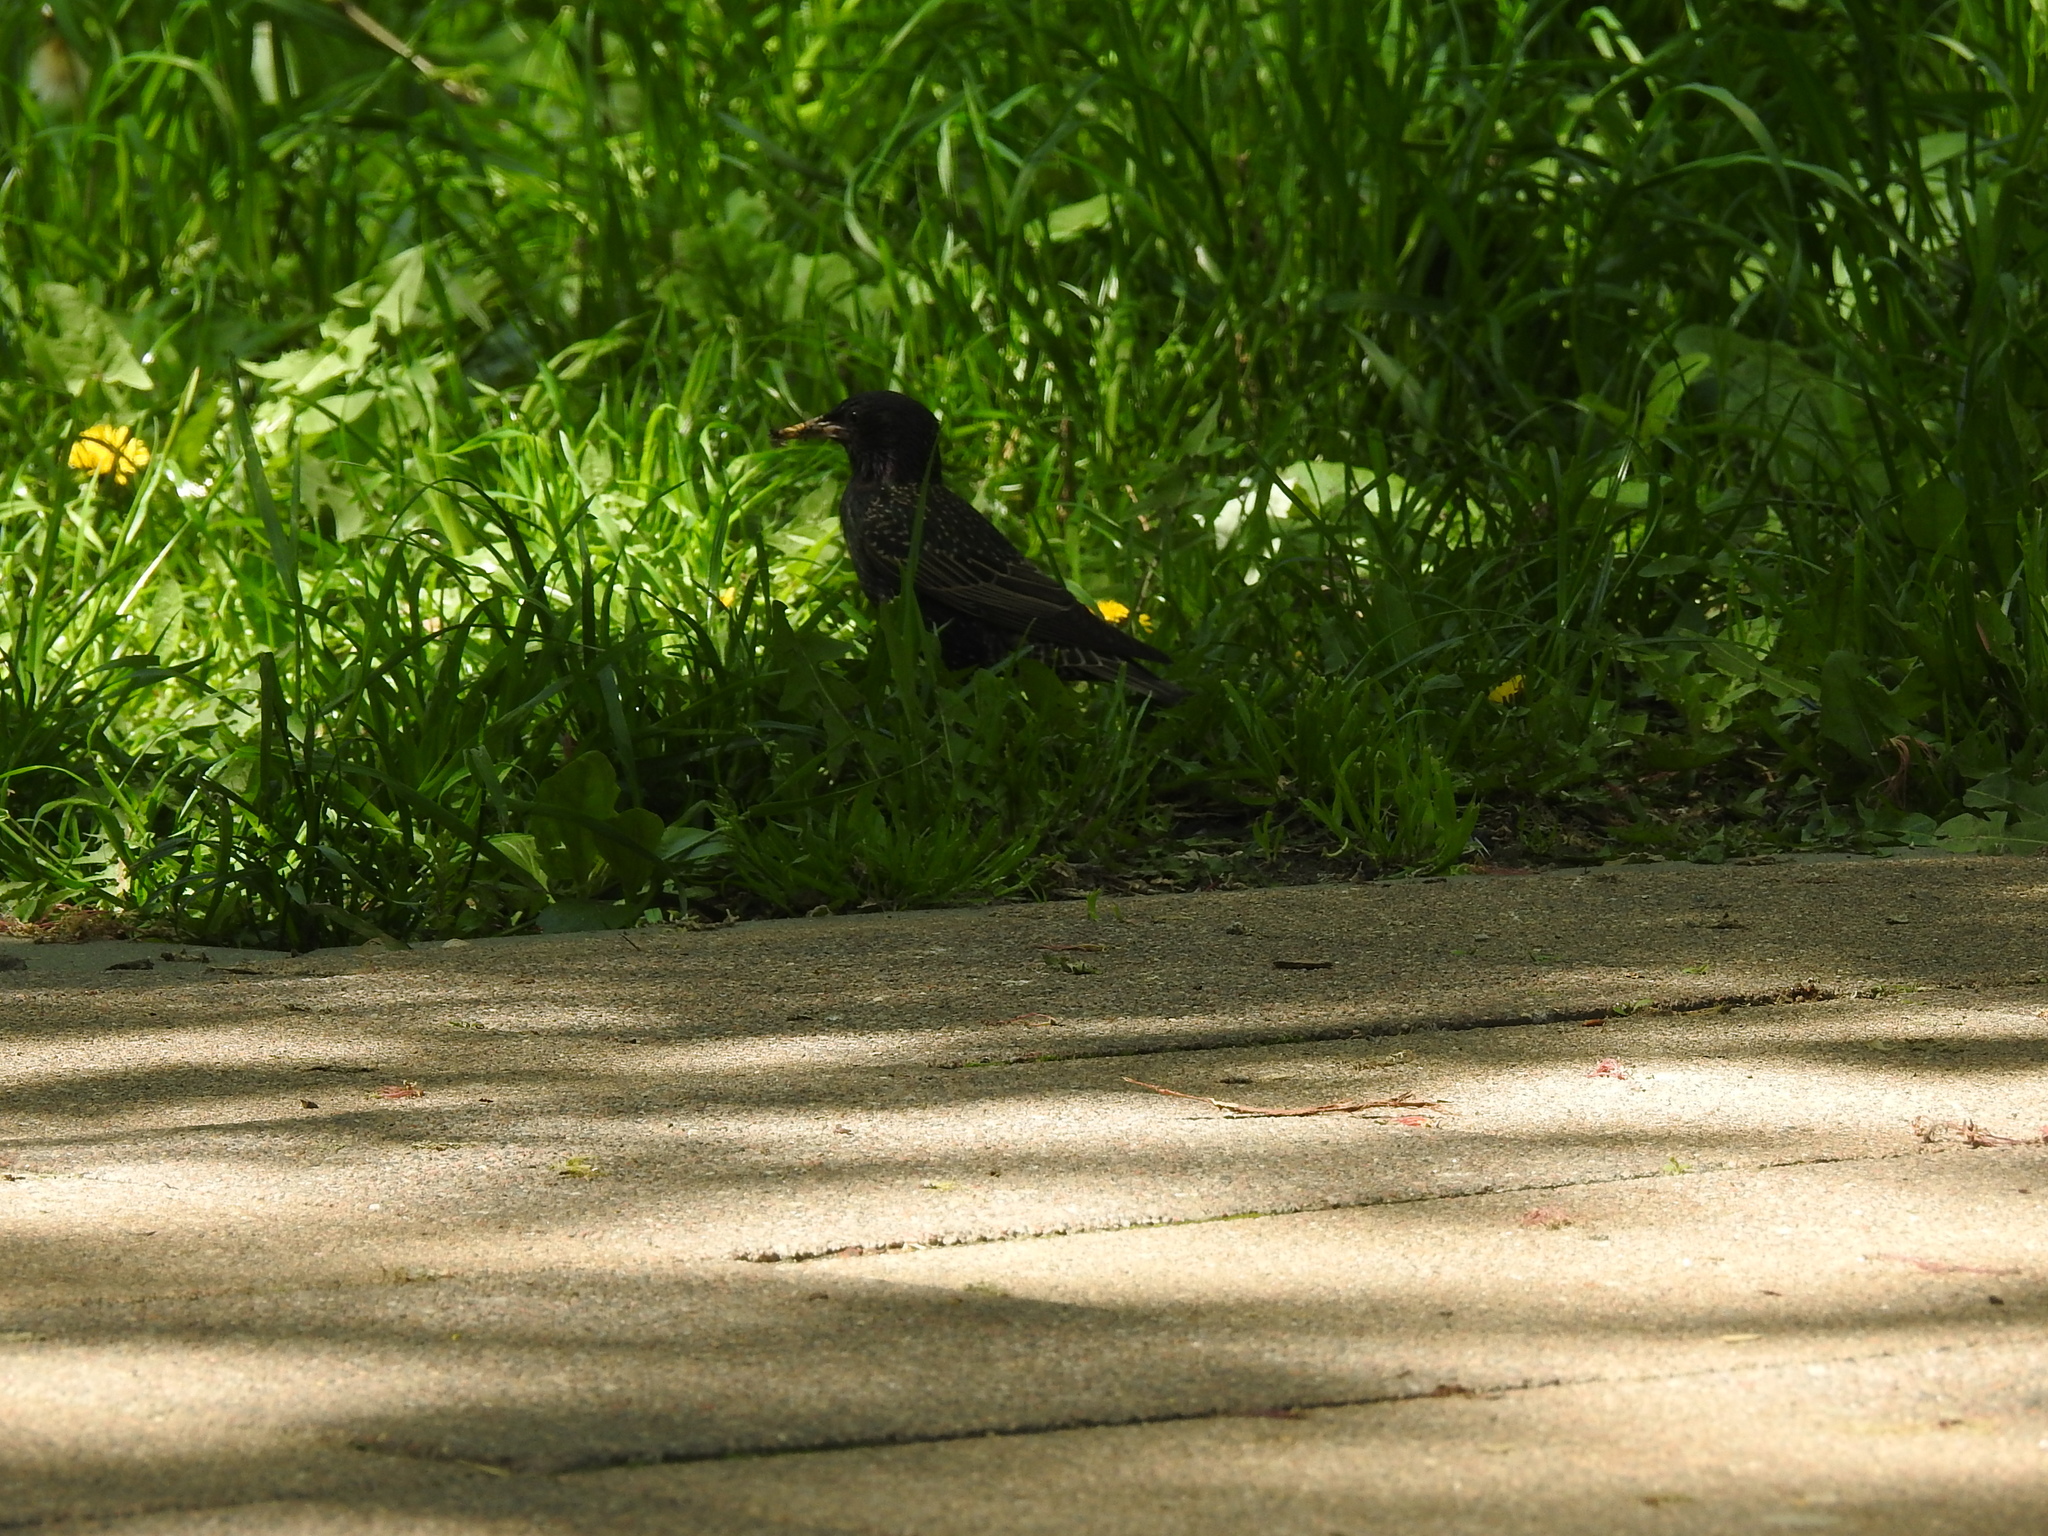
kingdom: Animalia
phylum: Chordata
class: Aves
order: Passeriformes
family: Sturnidae
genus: Sturnus
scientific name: Sturnus vulgaris
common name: Common starling
